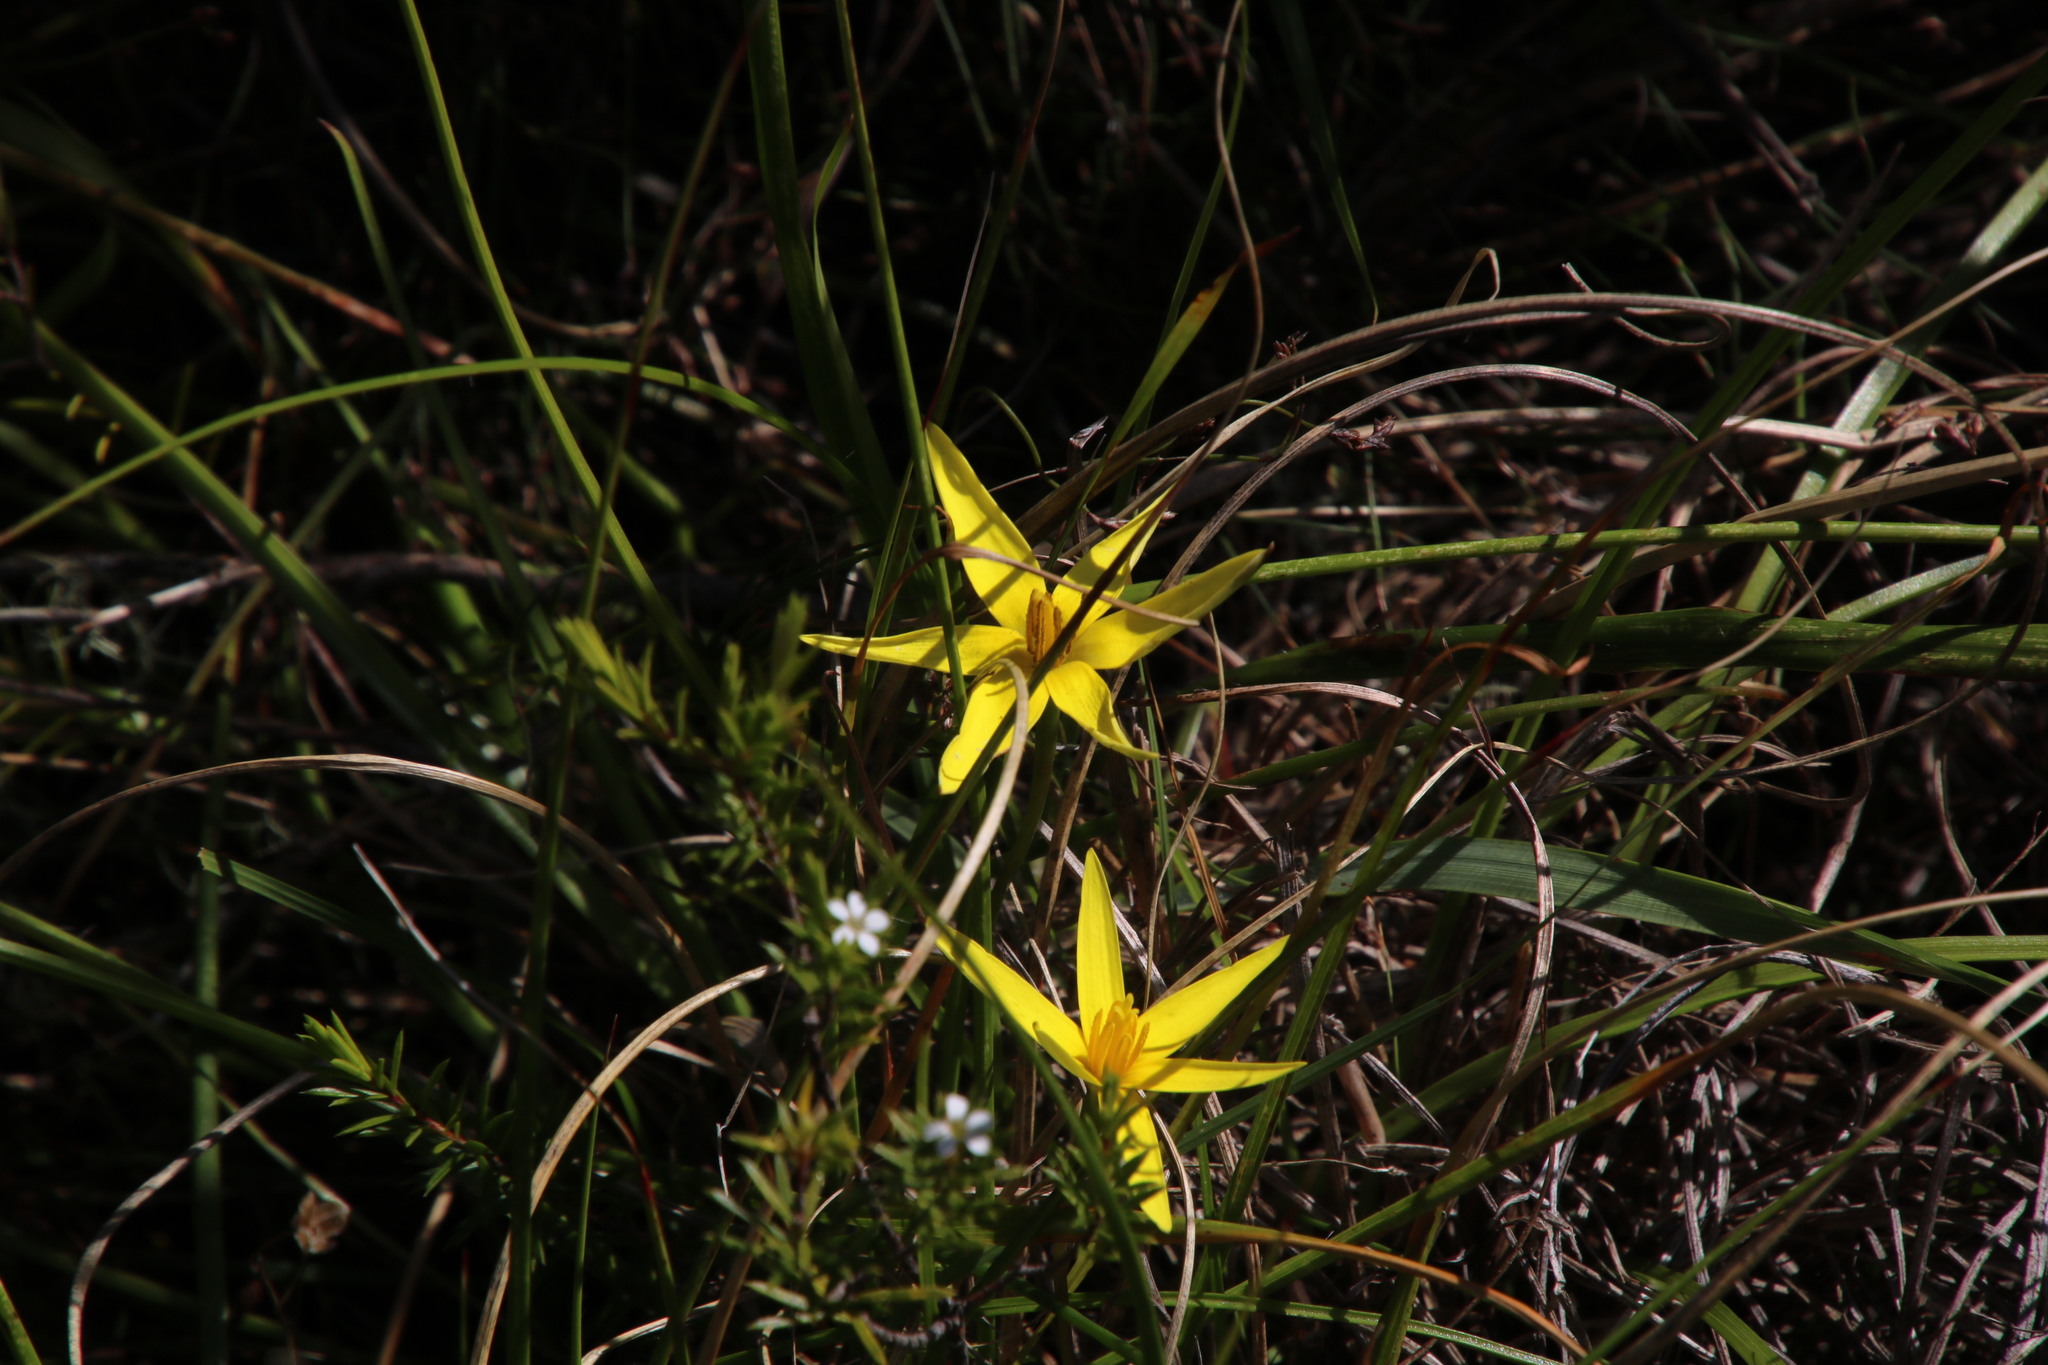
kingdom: Plantae
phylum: Tracheophyta
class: Liliopsida
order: Asparagales
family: Hypoxidaceae
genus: Pauridia
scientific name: Pauridia capensis
